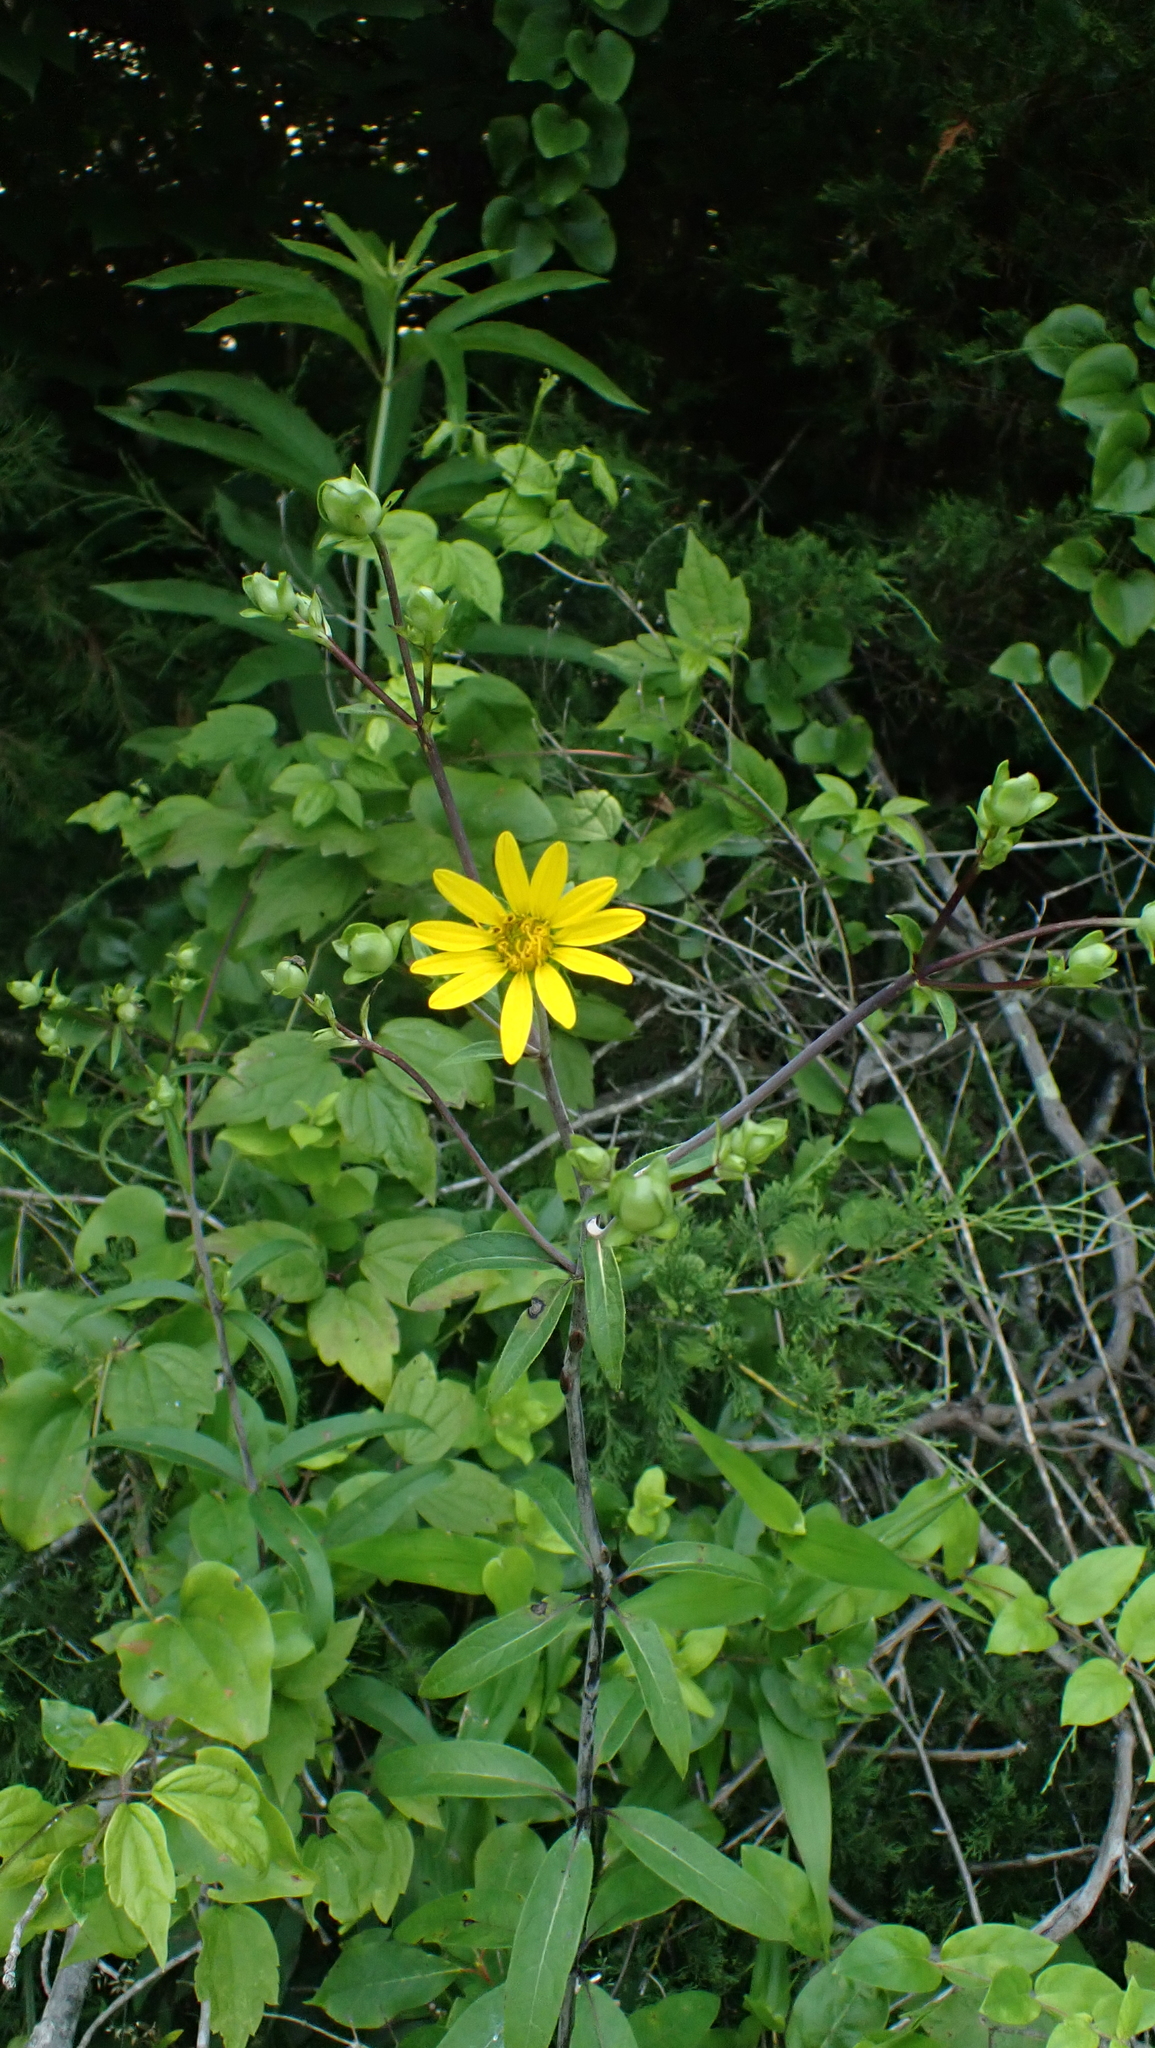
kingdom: Plantae
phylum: Tracheophyta
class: Magnoliopsida
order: Asterales
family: Asteraceae
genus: Silphium
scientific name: Silphium asteriscus
